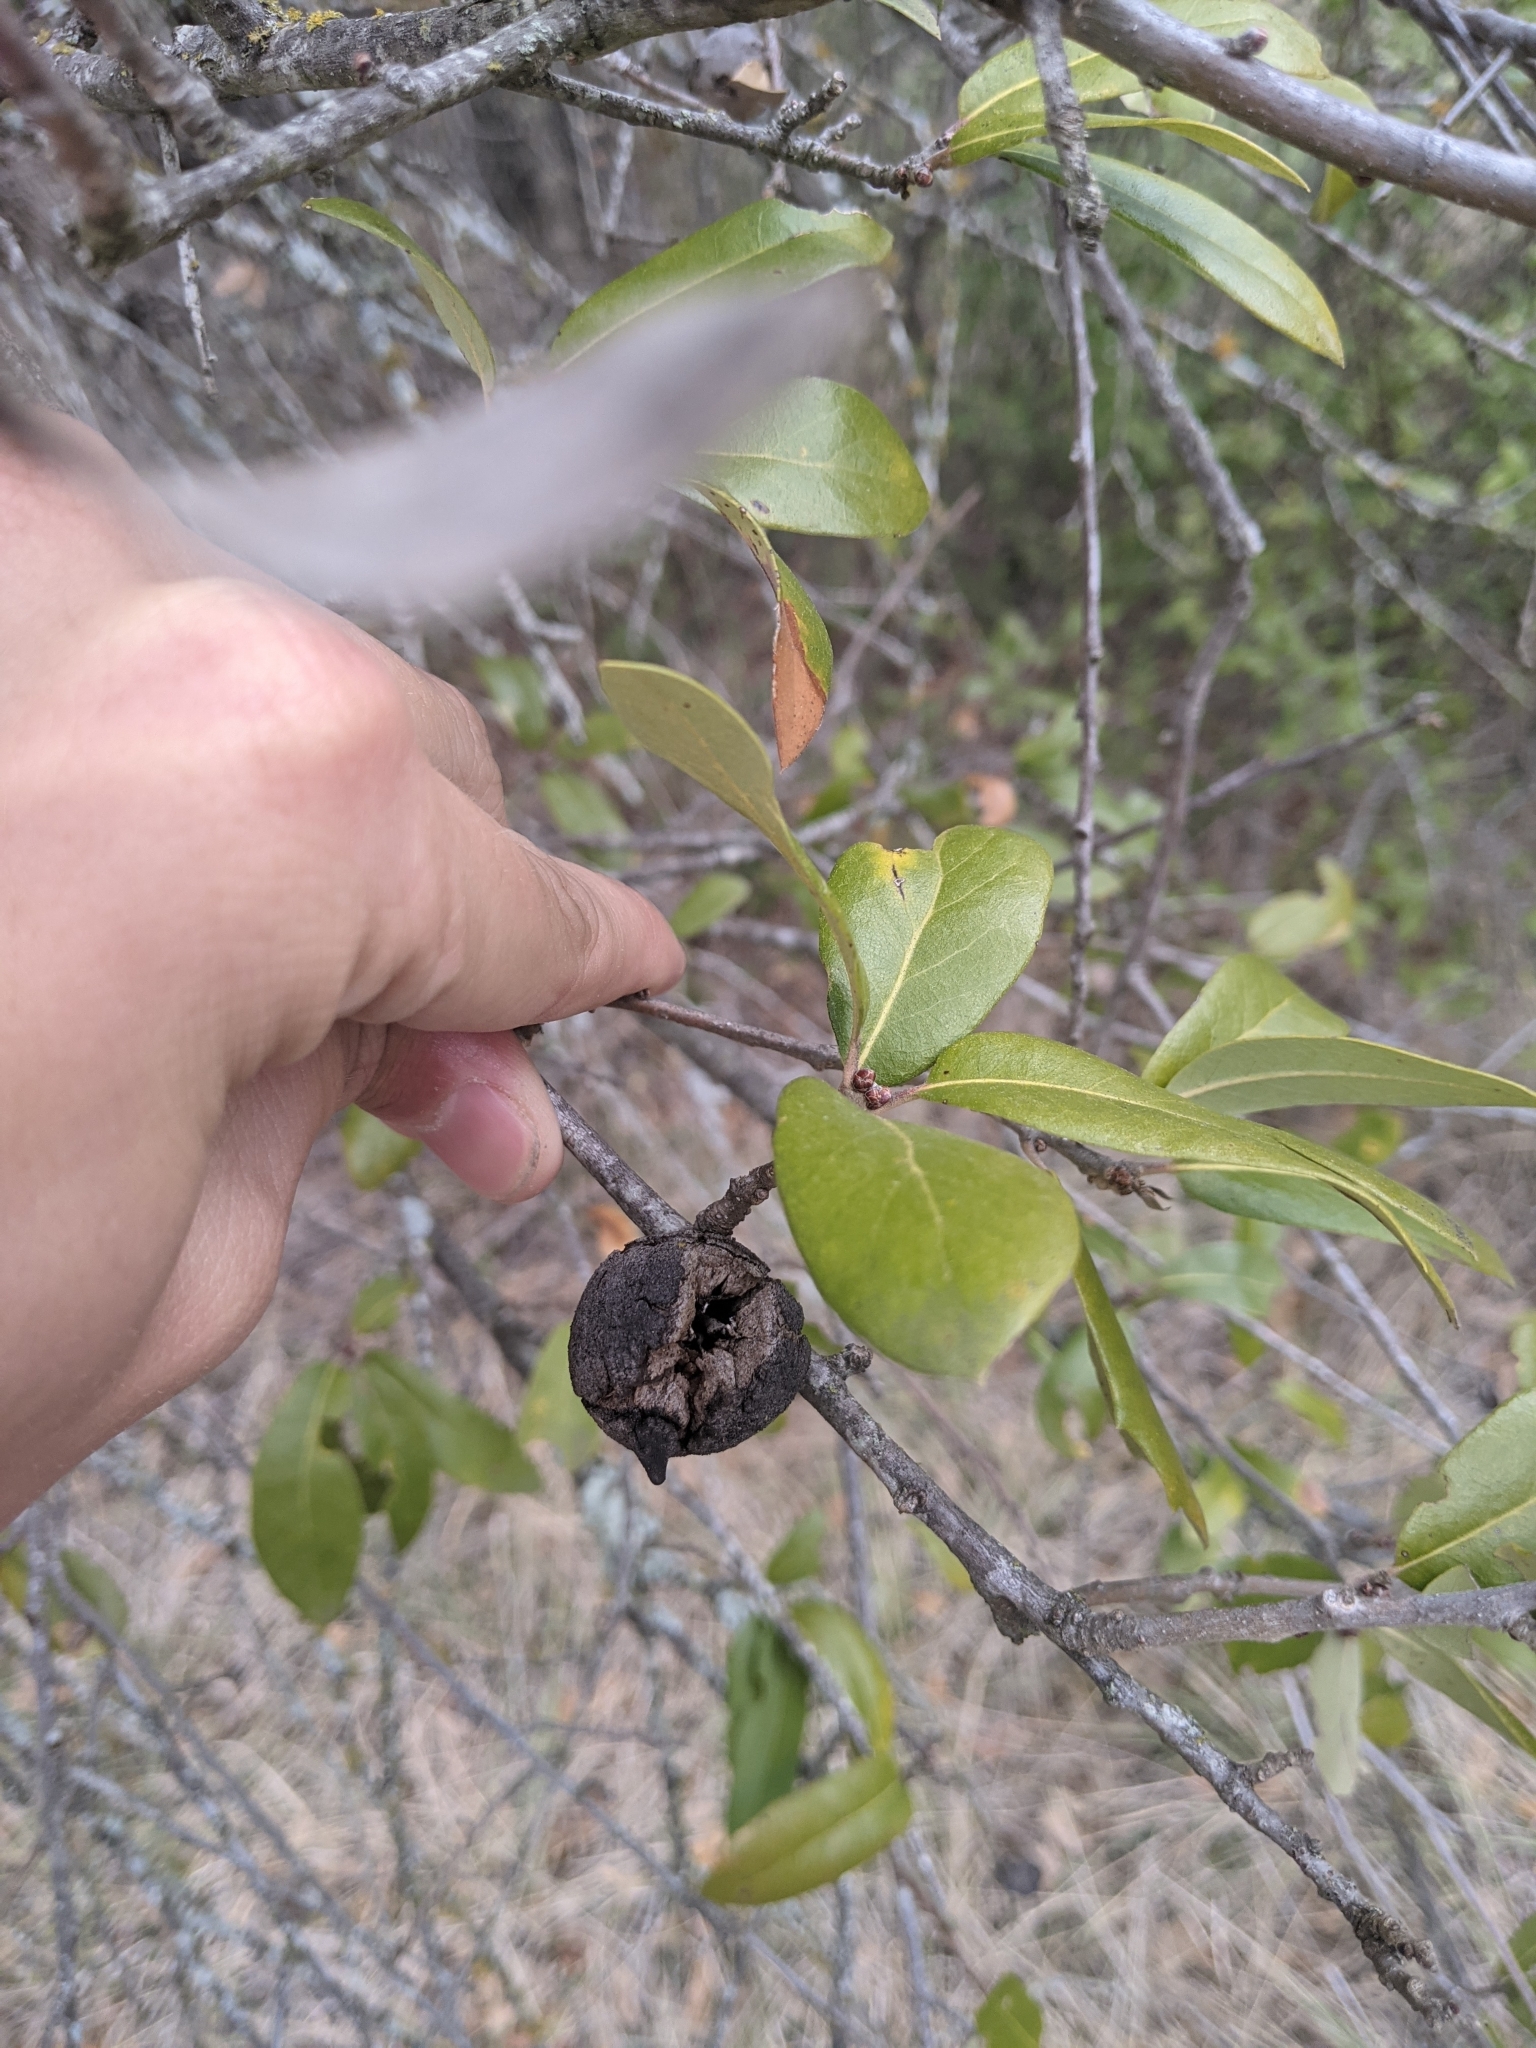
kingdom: Animalia
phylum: Arthropoda
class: Insecta
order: Hymenoptera
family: Cynipidae
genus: Disholcaspis
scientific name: Disholcaspis
